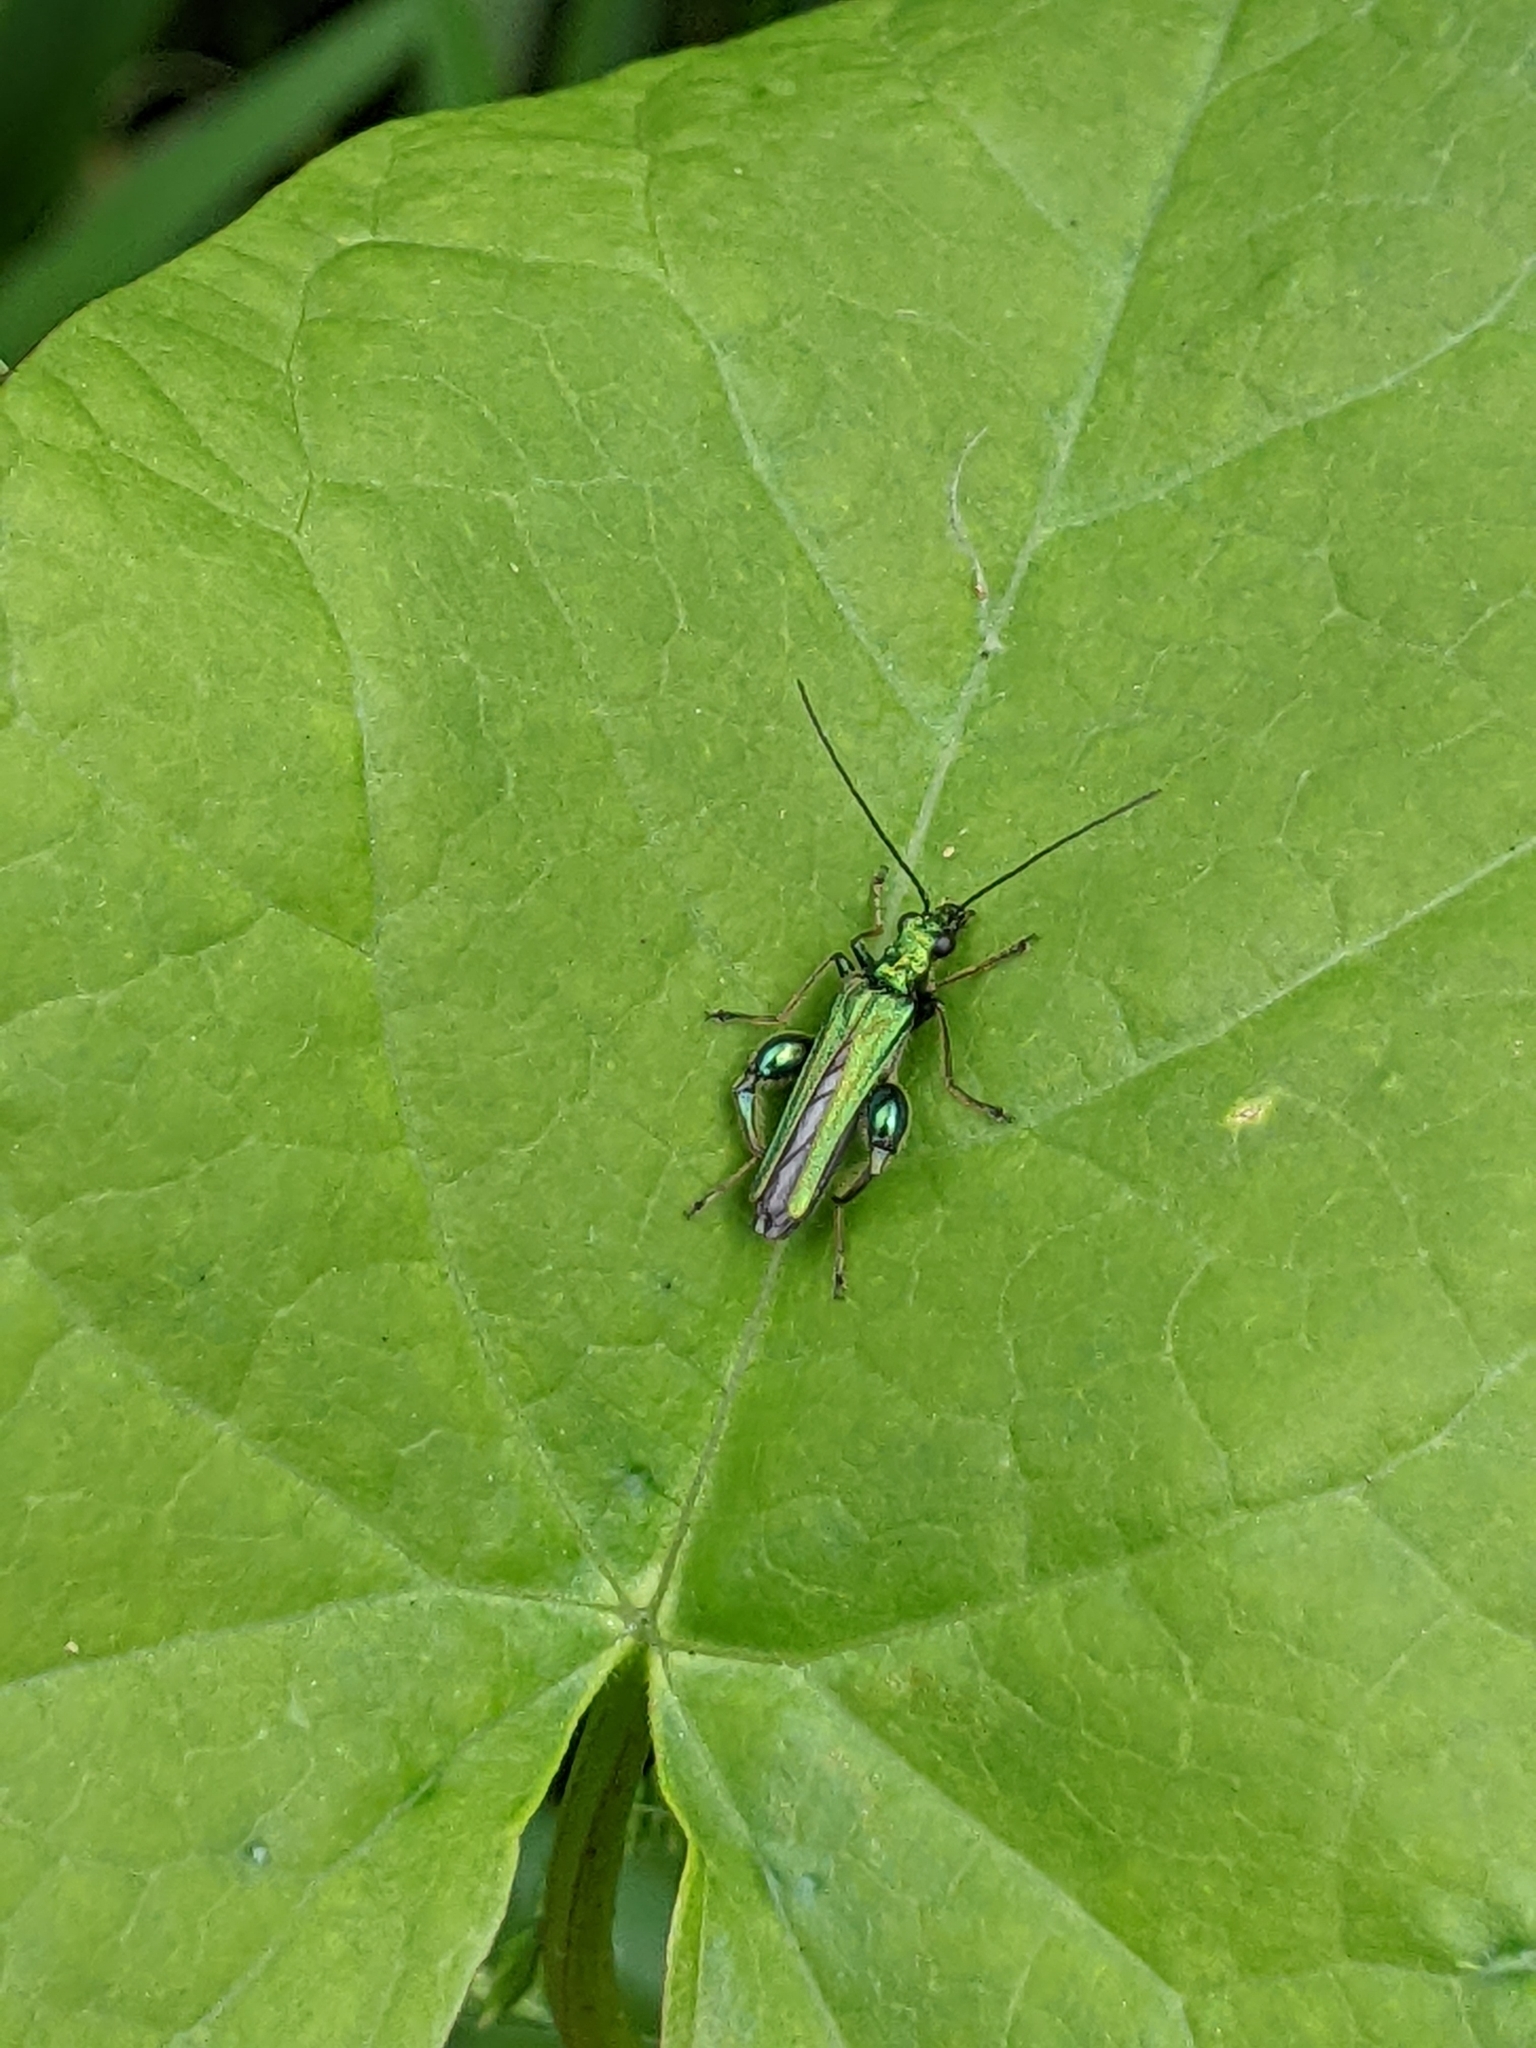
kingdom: Animalia
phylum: Arthropoda
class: Insecta
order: Coleoptera
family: Oedemeridae
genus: Oedemera
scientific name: Oedemera nobilis
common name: Swollen-thighed beetle
